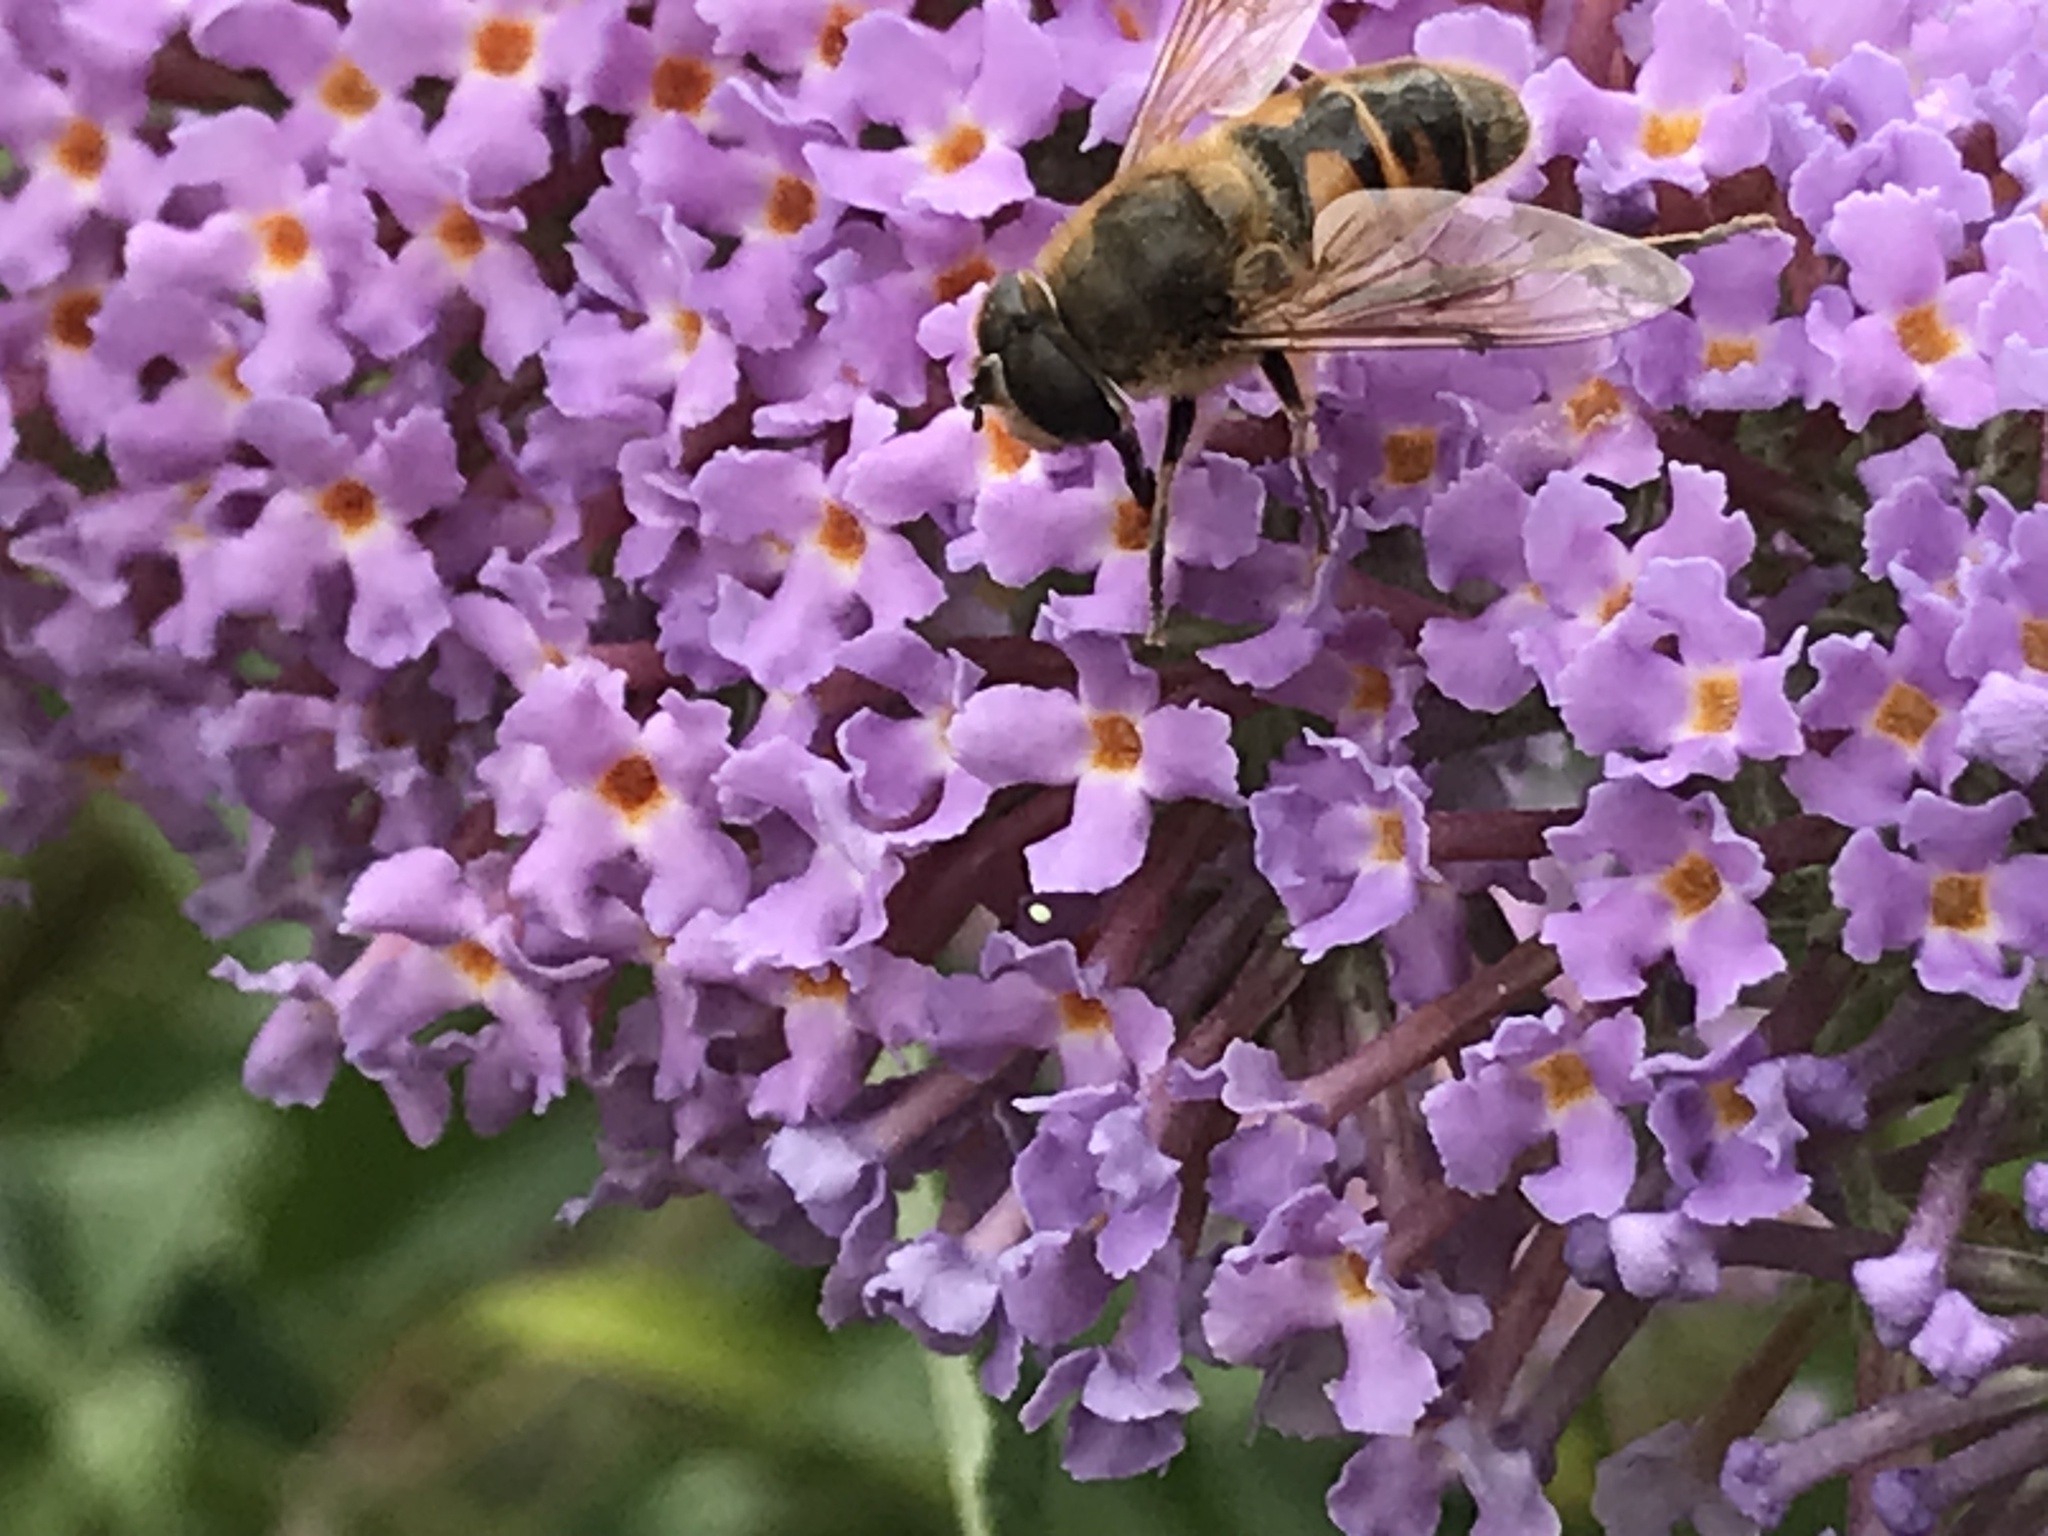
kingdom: Animalia
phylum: Arthropoda
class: Insecta
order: Diptera
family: Syrphidae
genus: Eristalis
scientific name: Eristalis tenax
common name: Drone fly
